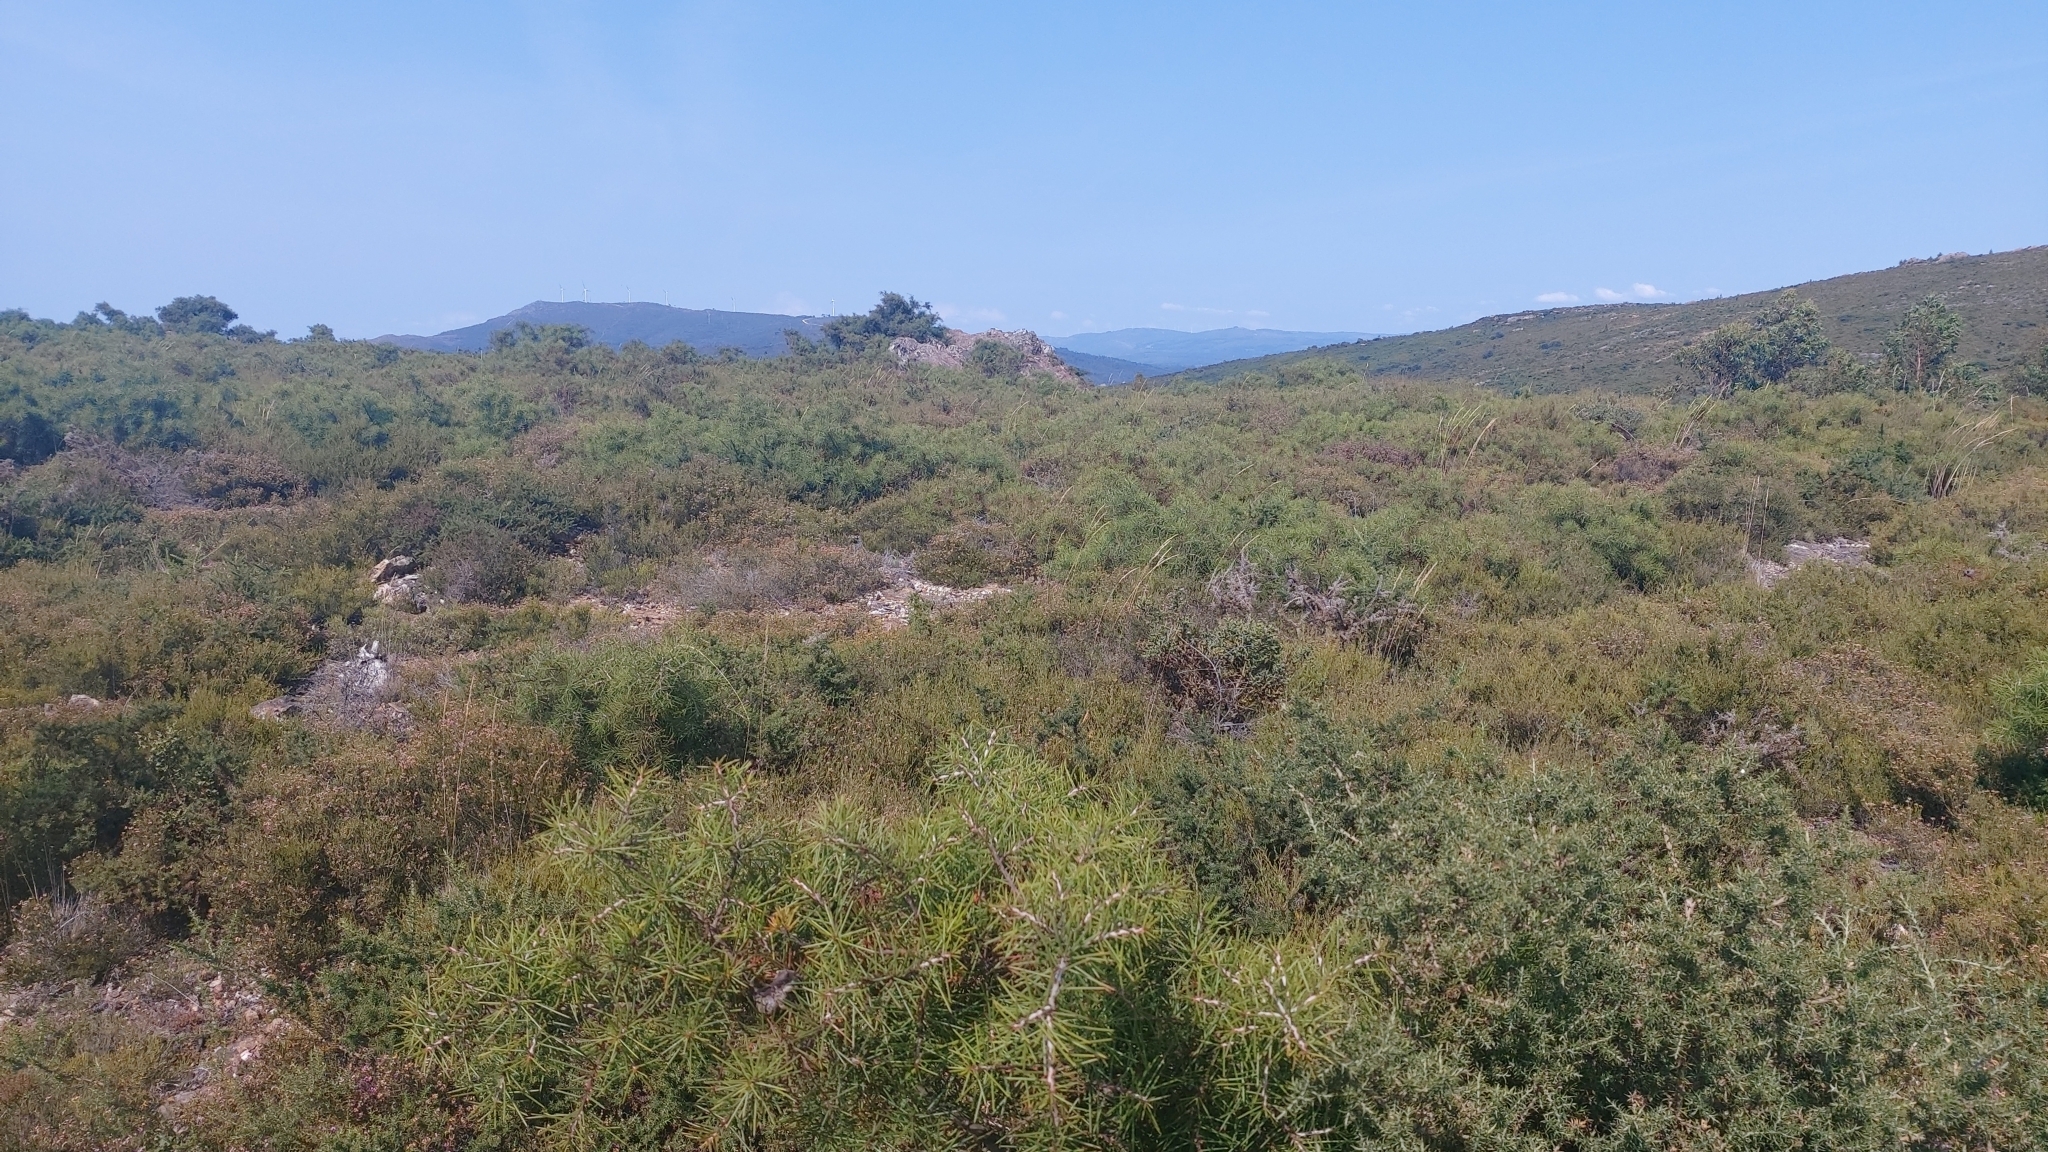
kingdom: Plantae
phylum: Tracheophyta
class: Magnoliopsida
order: Proteales
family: Proteaceae
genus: Hakea
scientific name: Hakea decurrens
